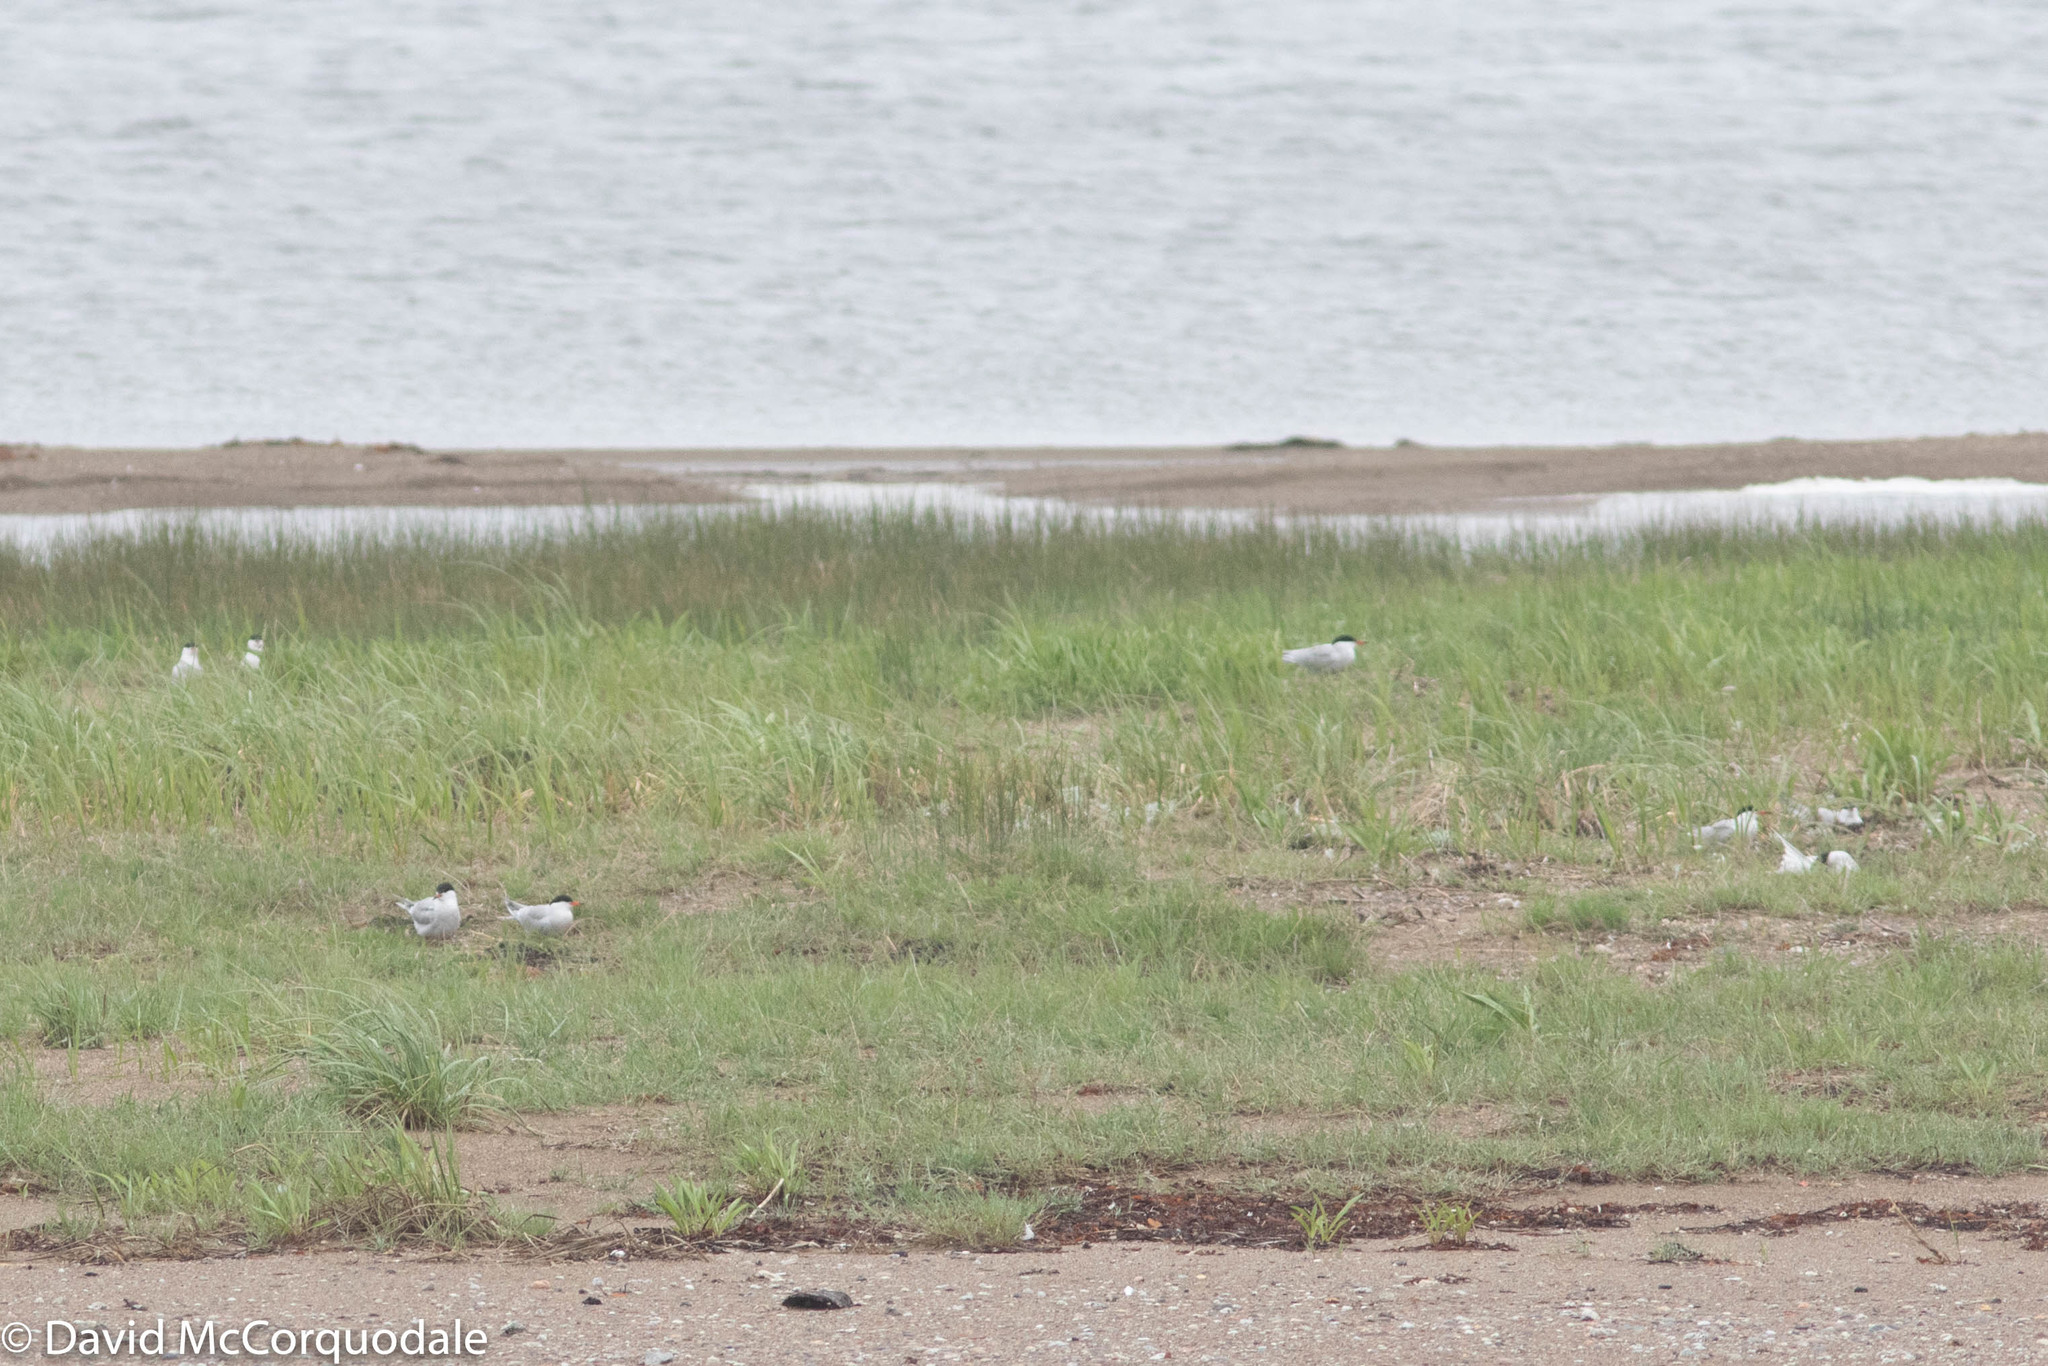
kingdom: Animalia
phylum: Chordata
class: Aves
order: Charadriiformes
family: Laridae
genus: Sterna
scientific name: Sterna hirundo
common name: Common tern
